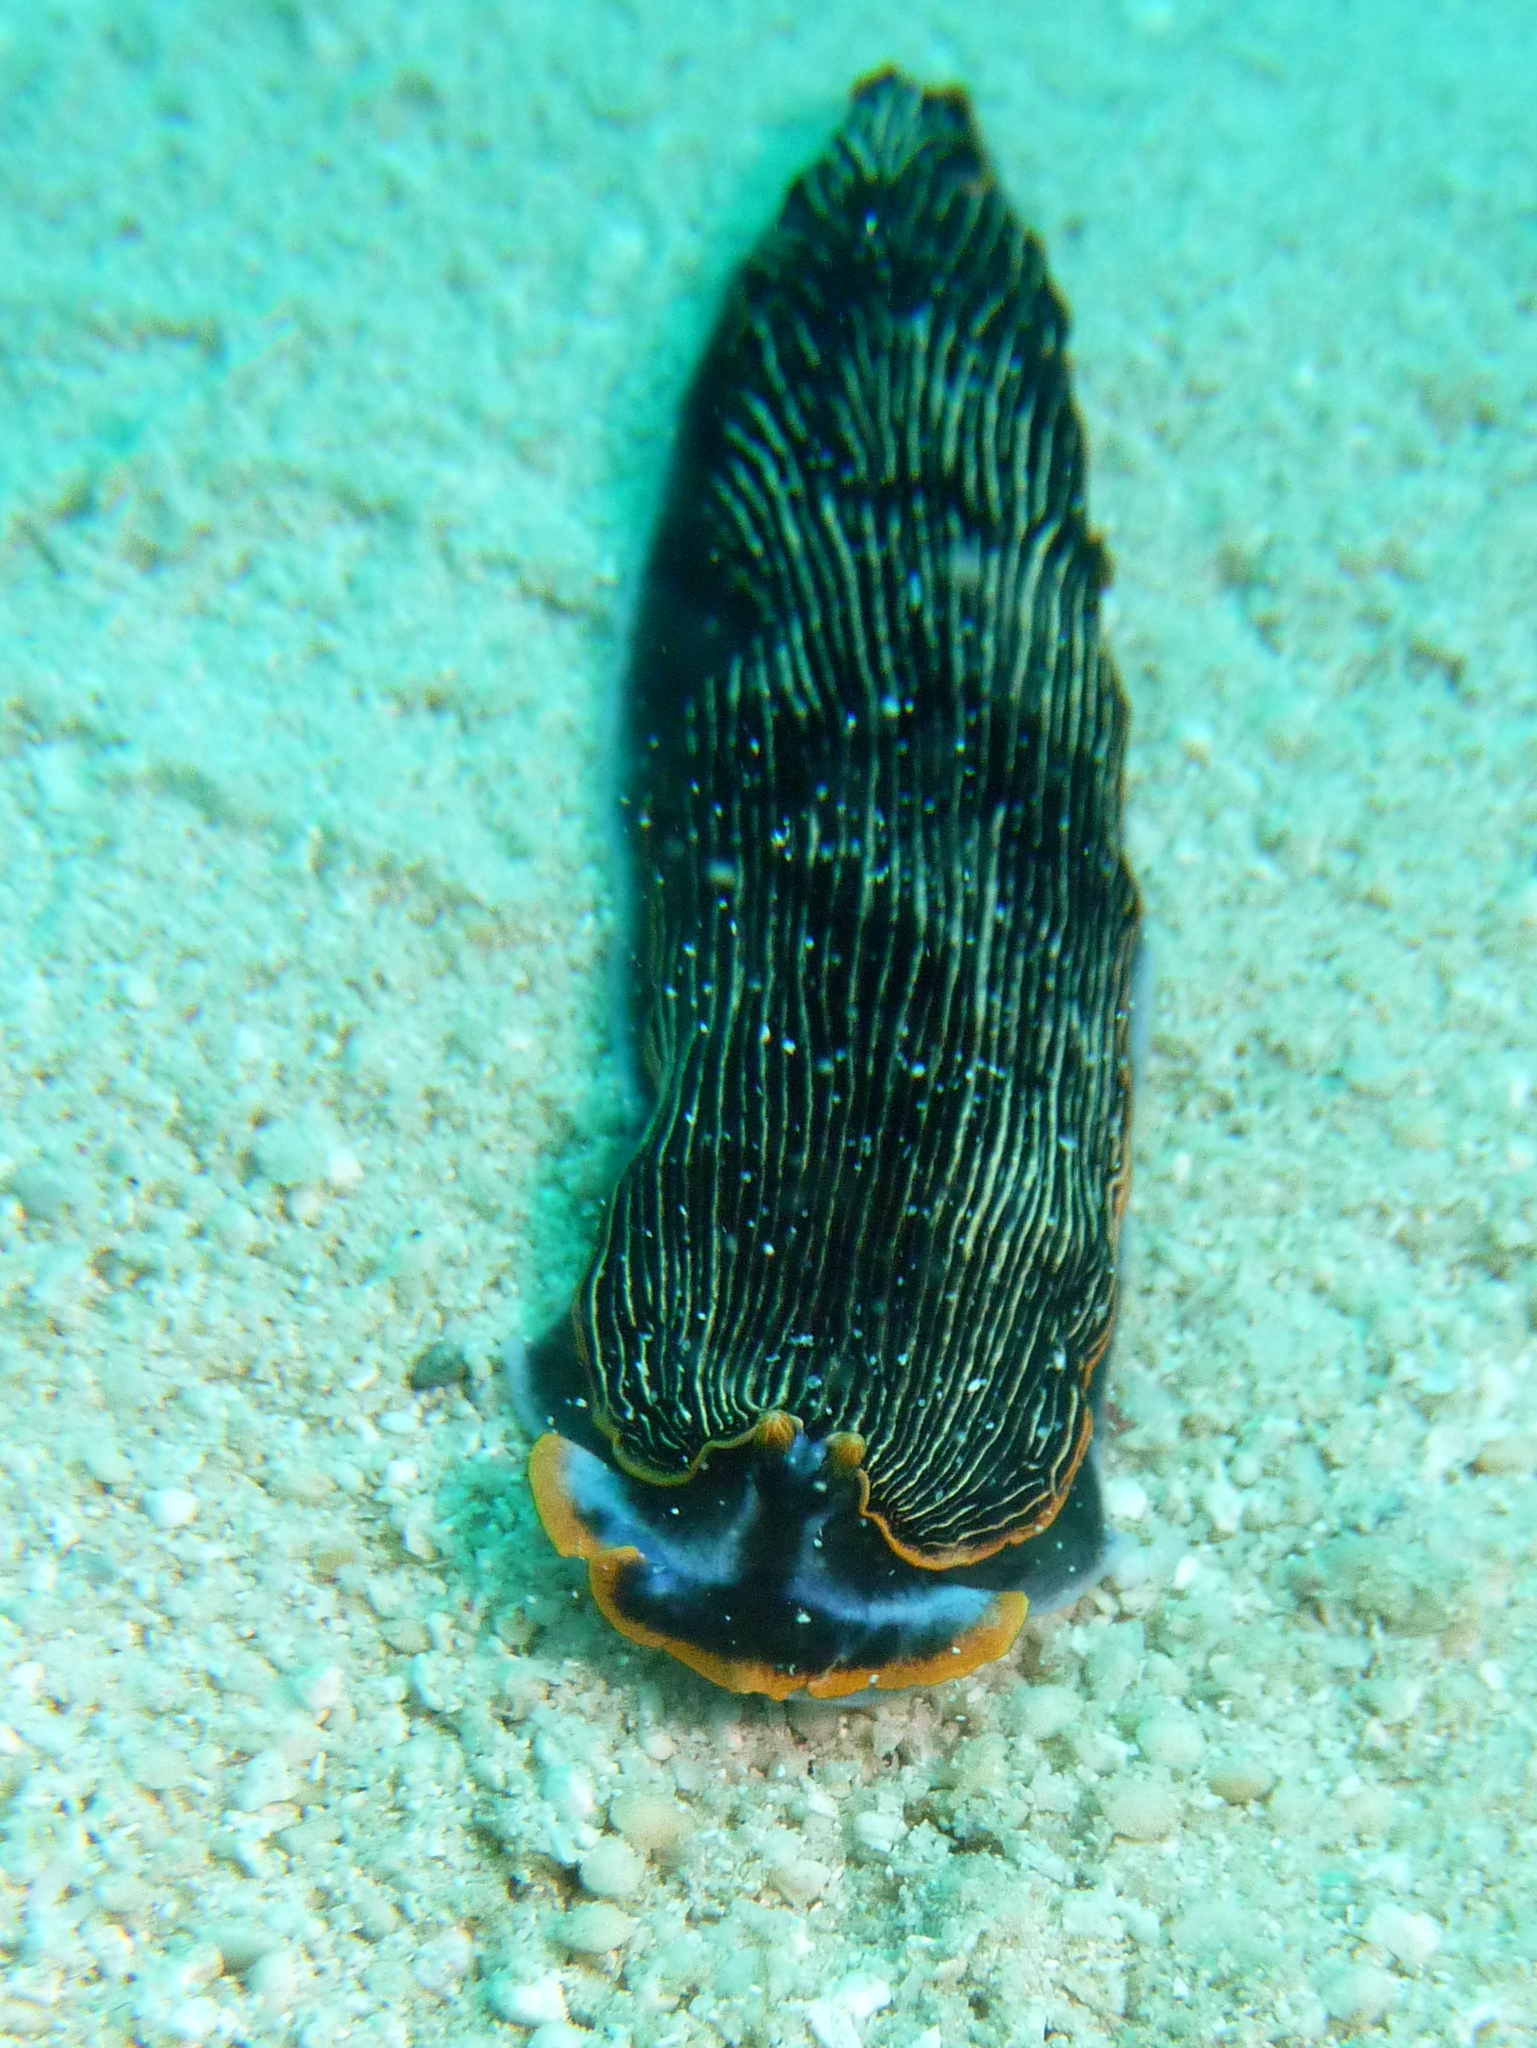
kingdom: Animalia
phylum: Mollusca
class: Gastropoda
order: Nudibranchia
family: Arminidae
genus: Armina
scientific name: Armina occulta
